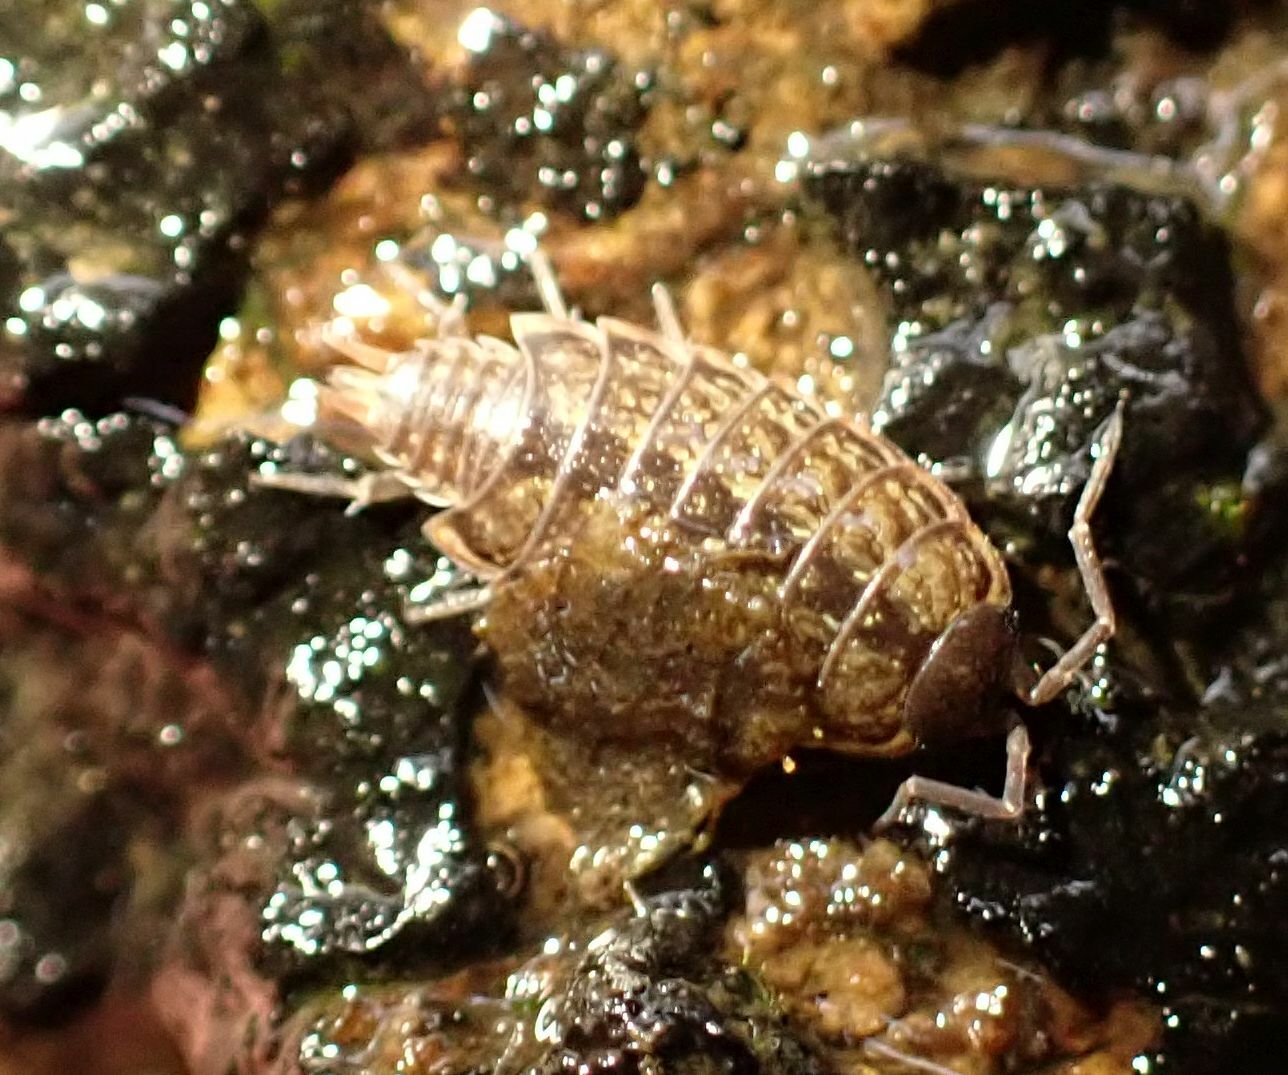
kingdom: Animalia
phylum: Arthropoda
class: Malacostraca
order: Isopoda
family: Philosciidae
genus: Philoscia
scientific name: Philoscia muscorum
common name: Common striped woodlouse
